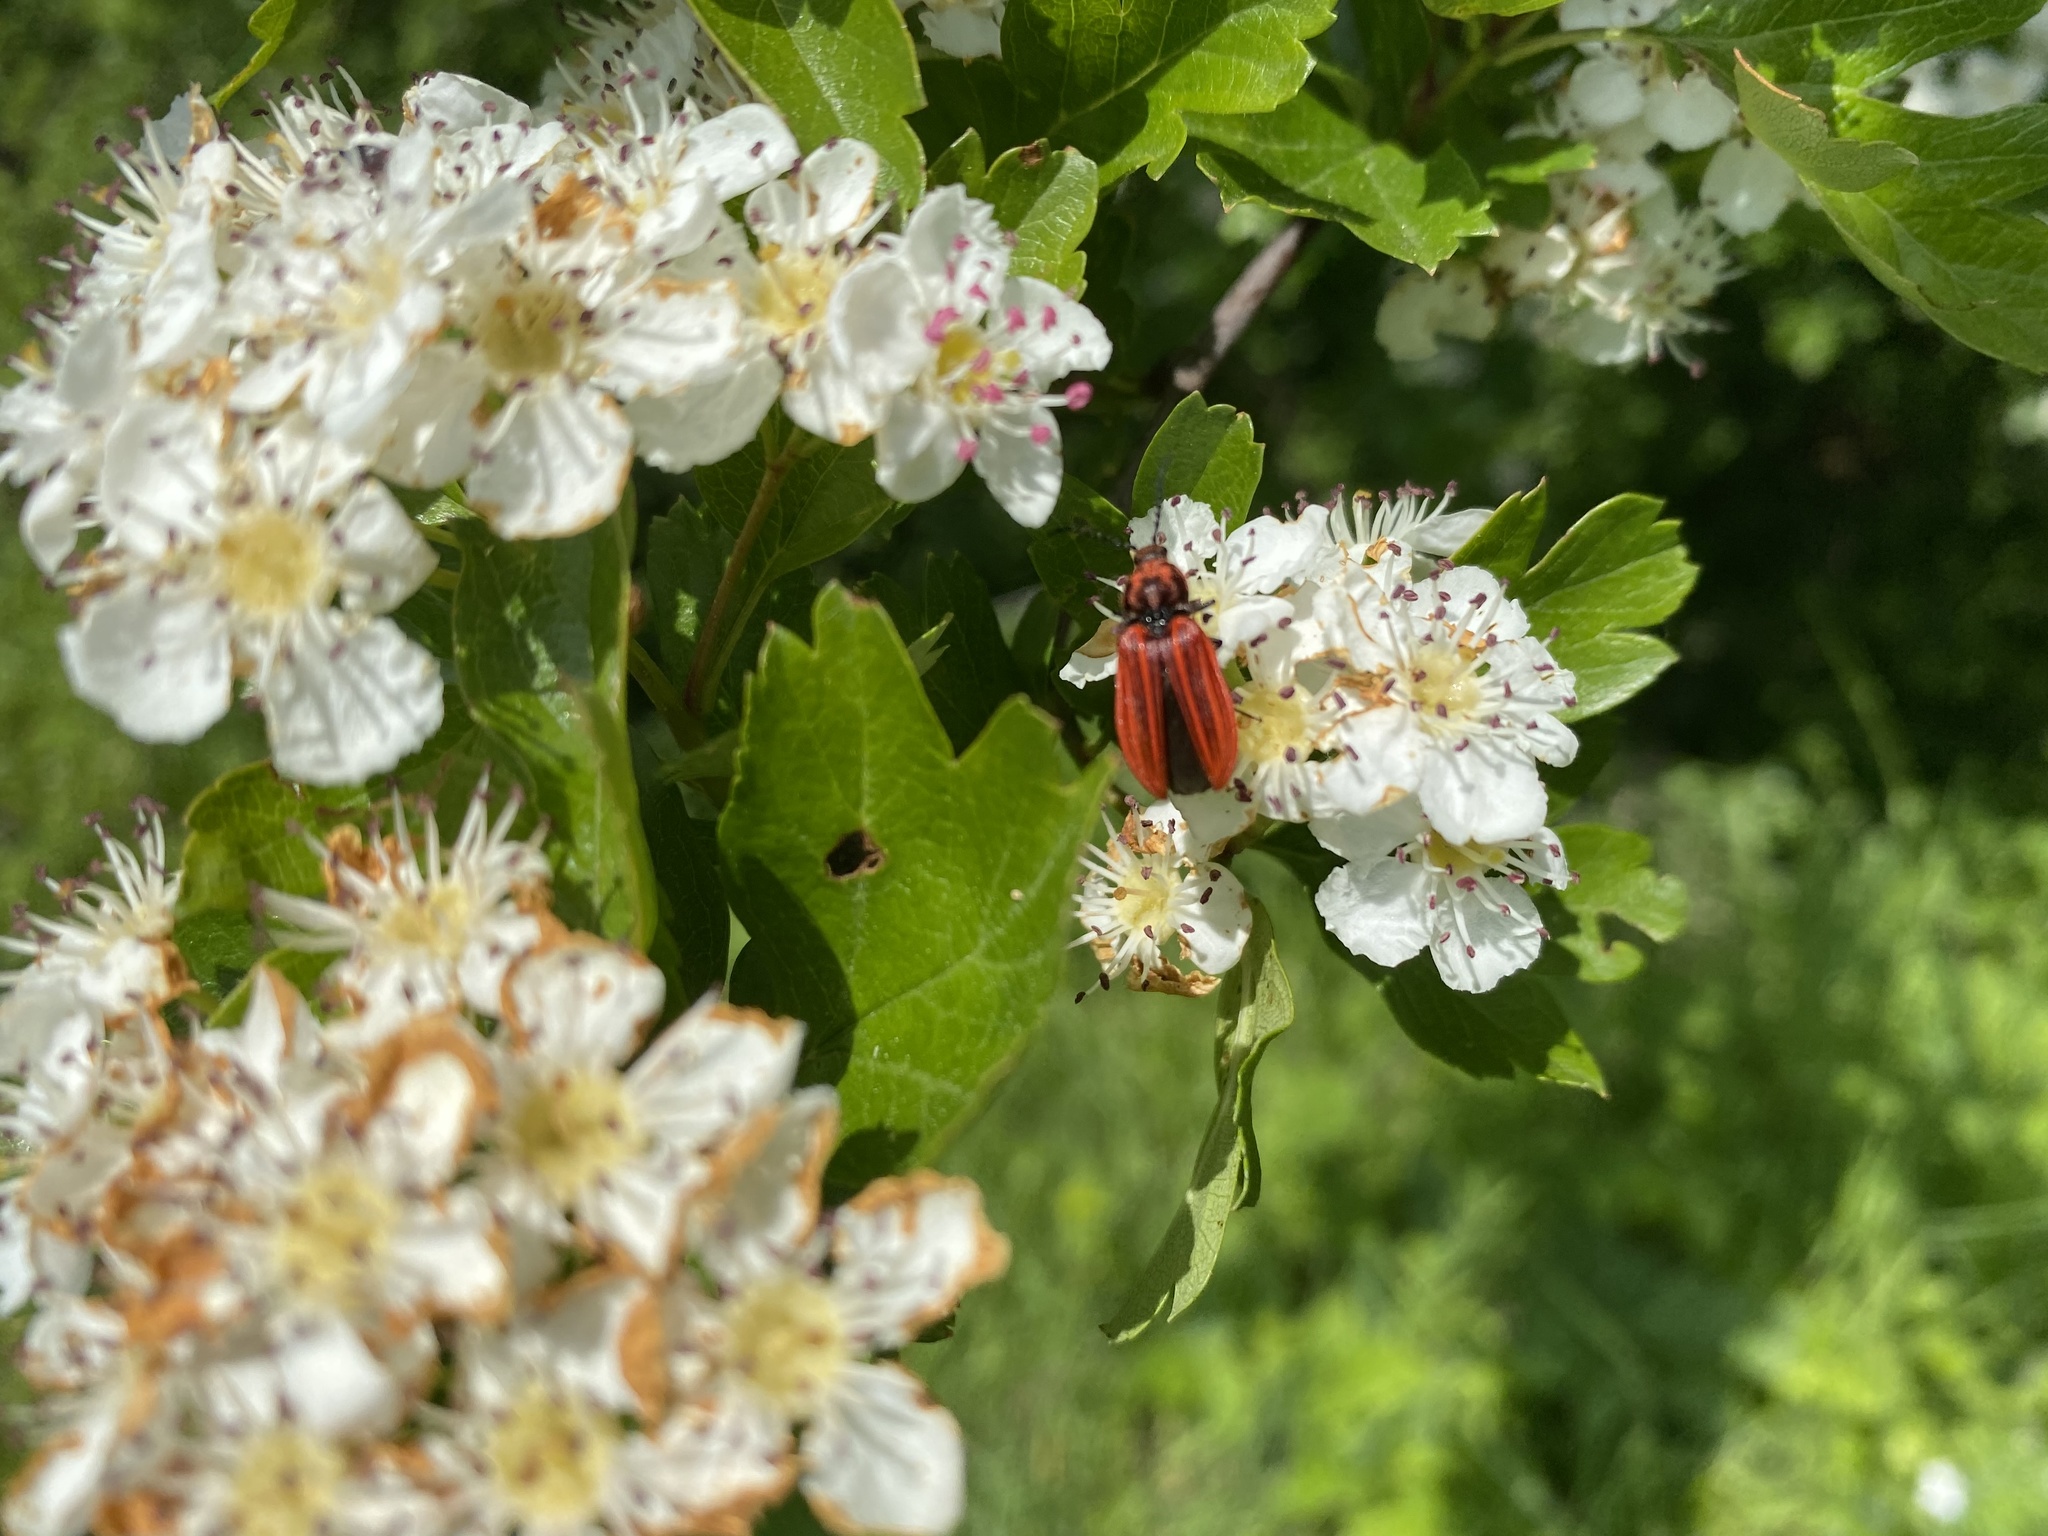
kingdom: Animalia
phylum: Arthropoda
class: Insecta
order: Coleoptera
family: Elateridae
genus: Anostirus
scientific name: Anostirus purpureus
